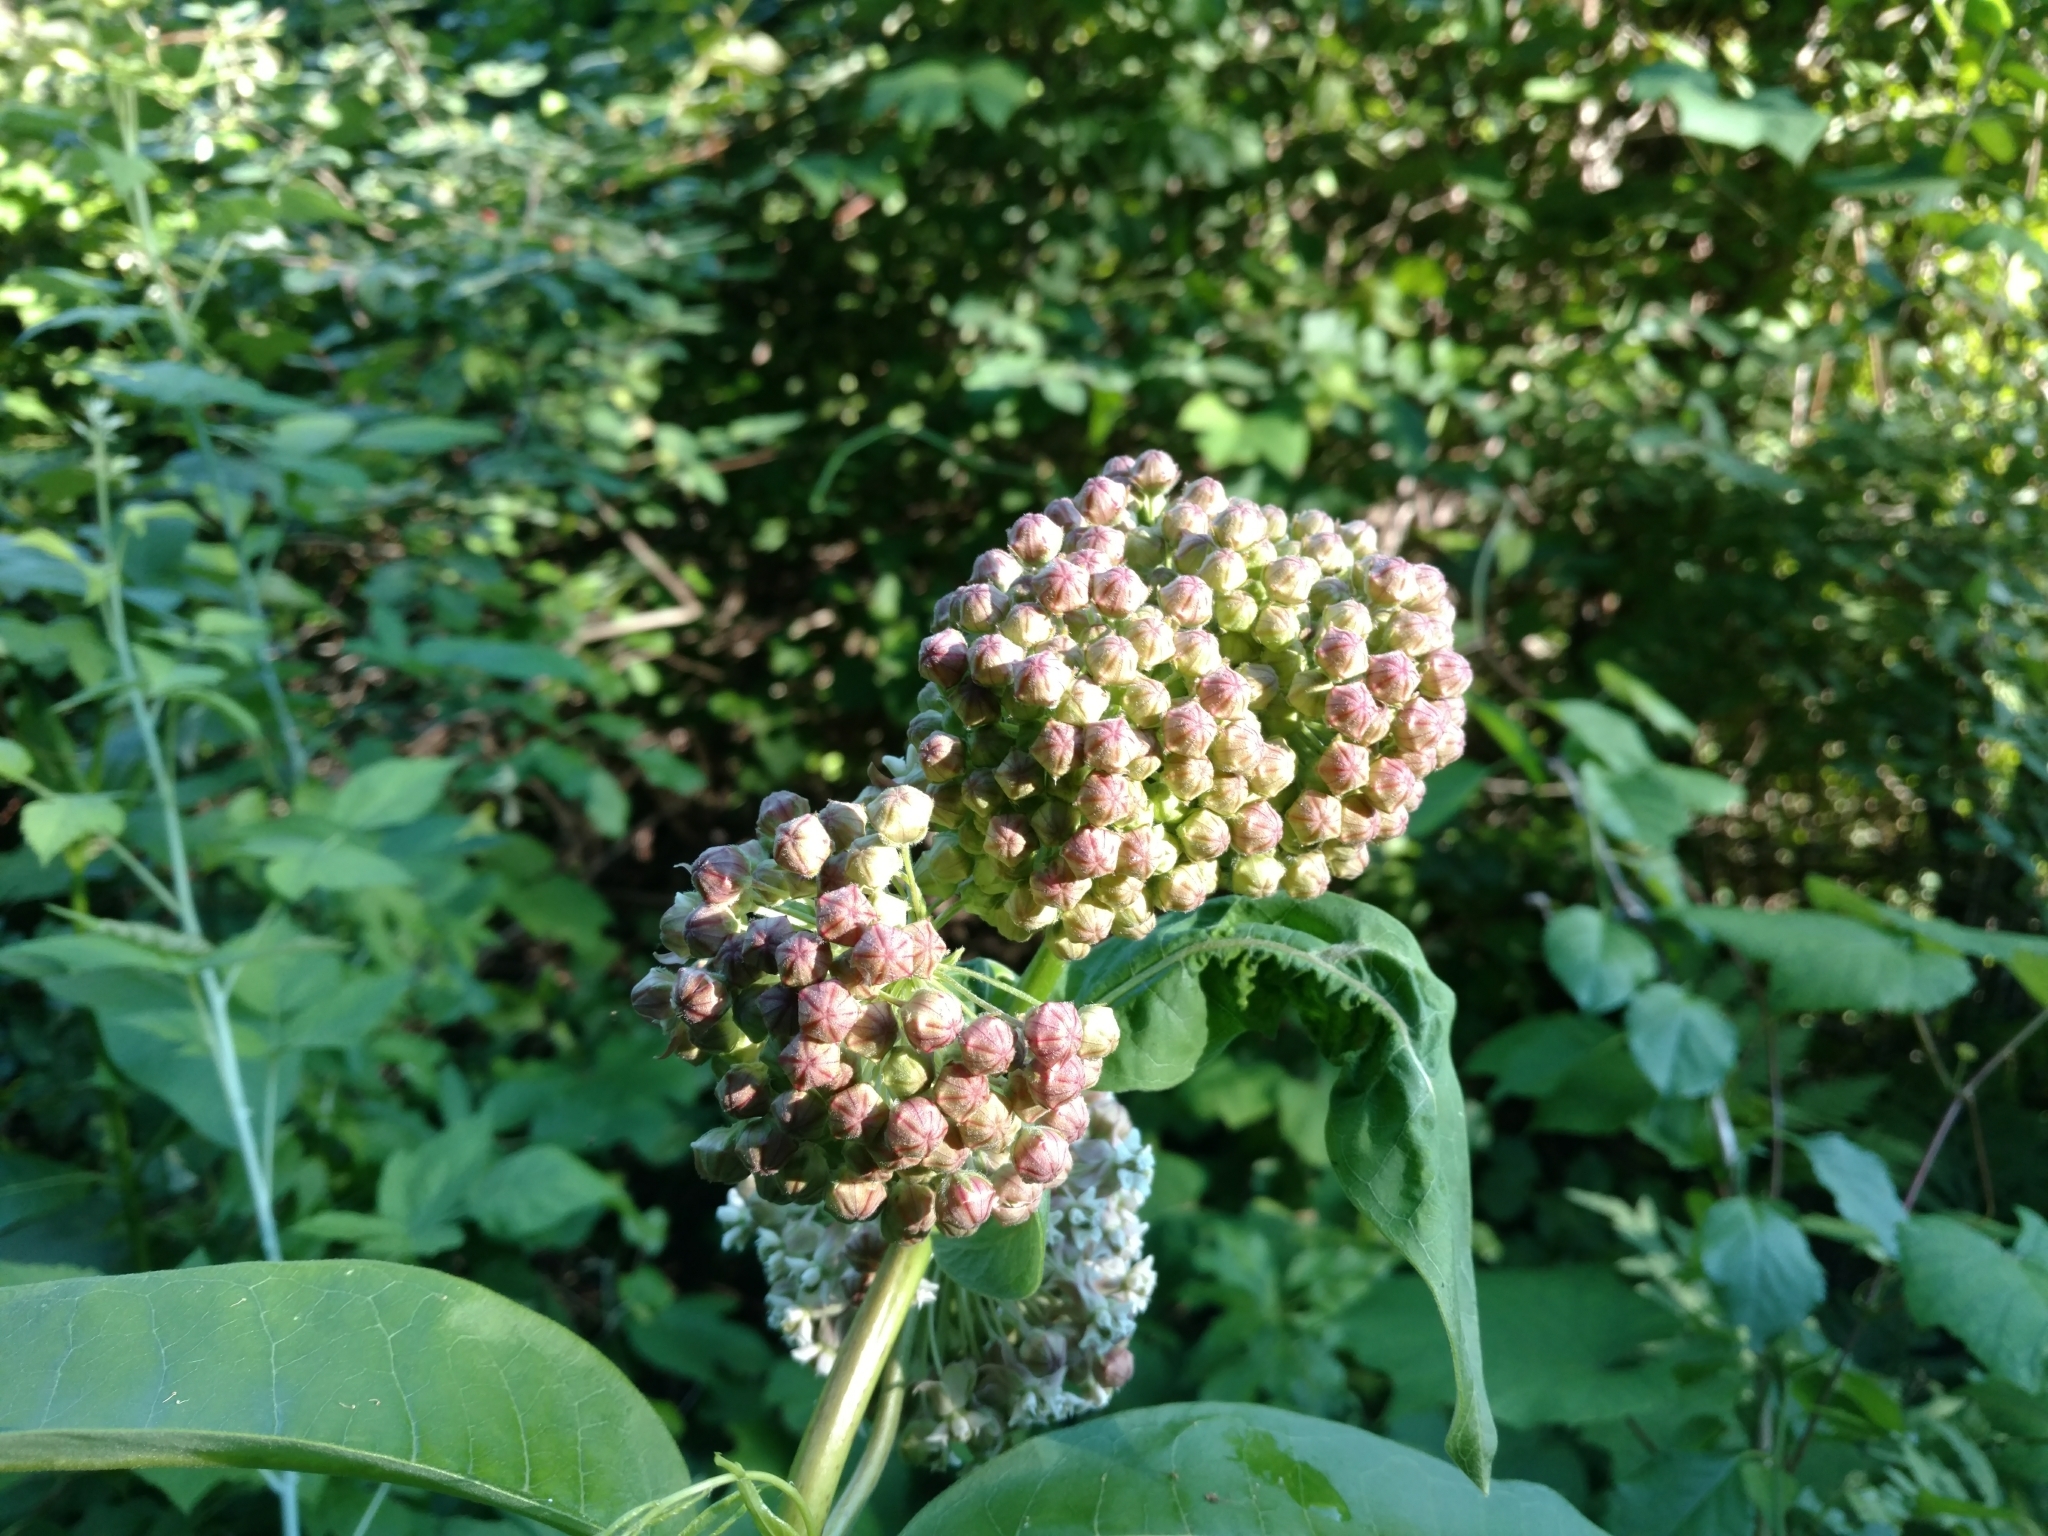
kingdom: Plantae
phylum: Tracheophyta
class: Magnoliopsida
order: Gentianales
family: Apocynaceae
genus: Asclepias
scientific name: Asclepias syriaca
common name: Common milkweed
